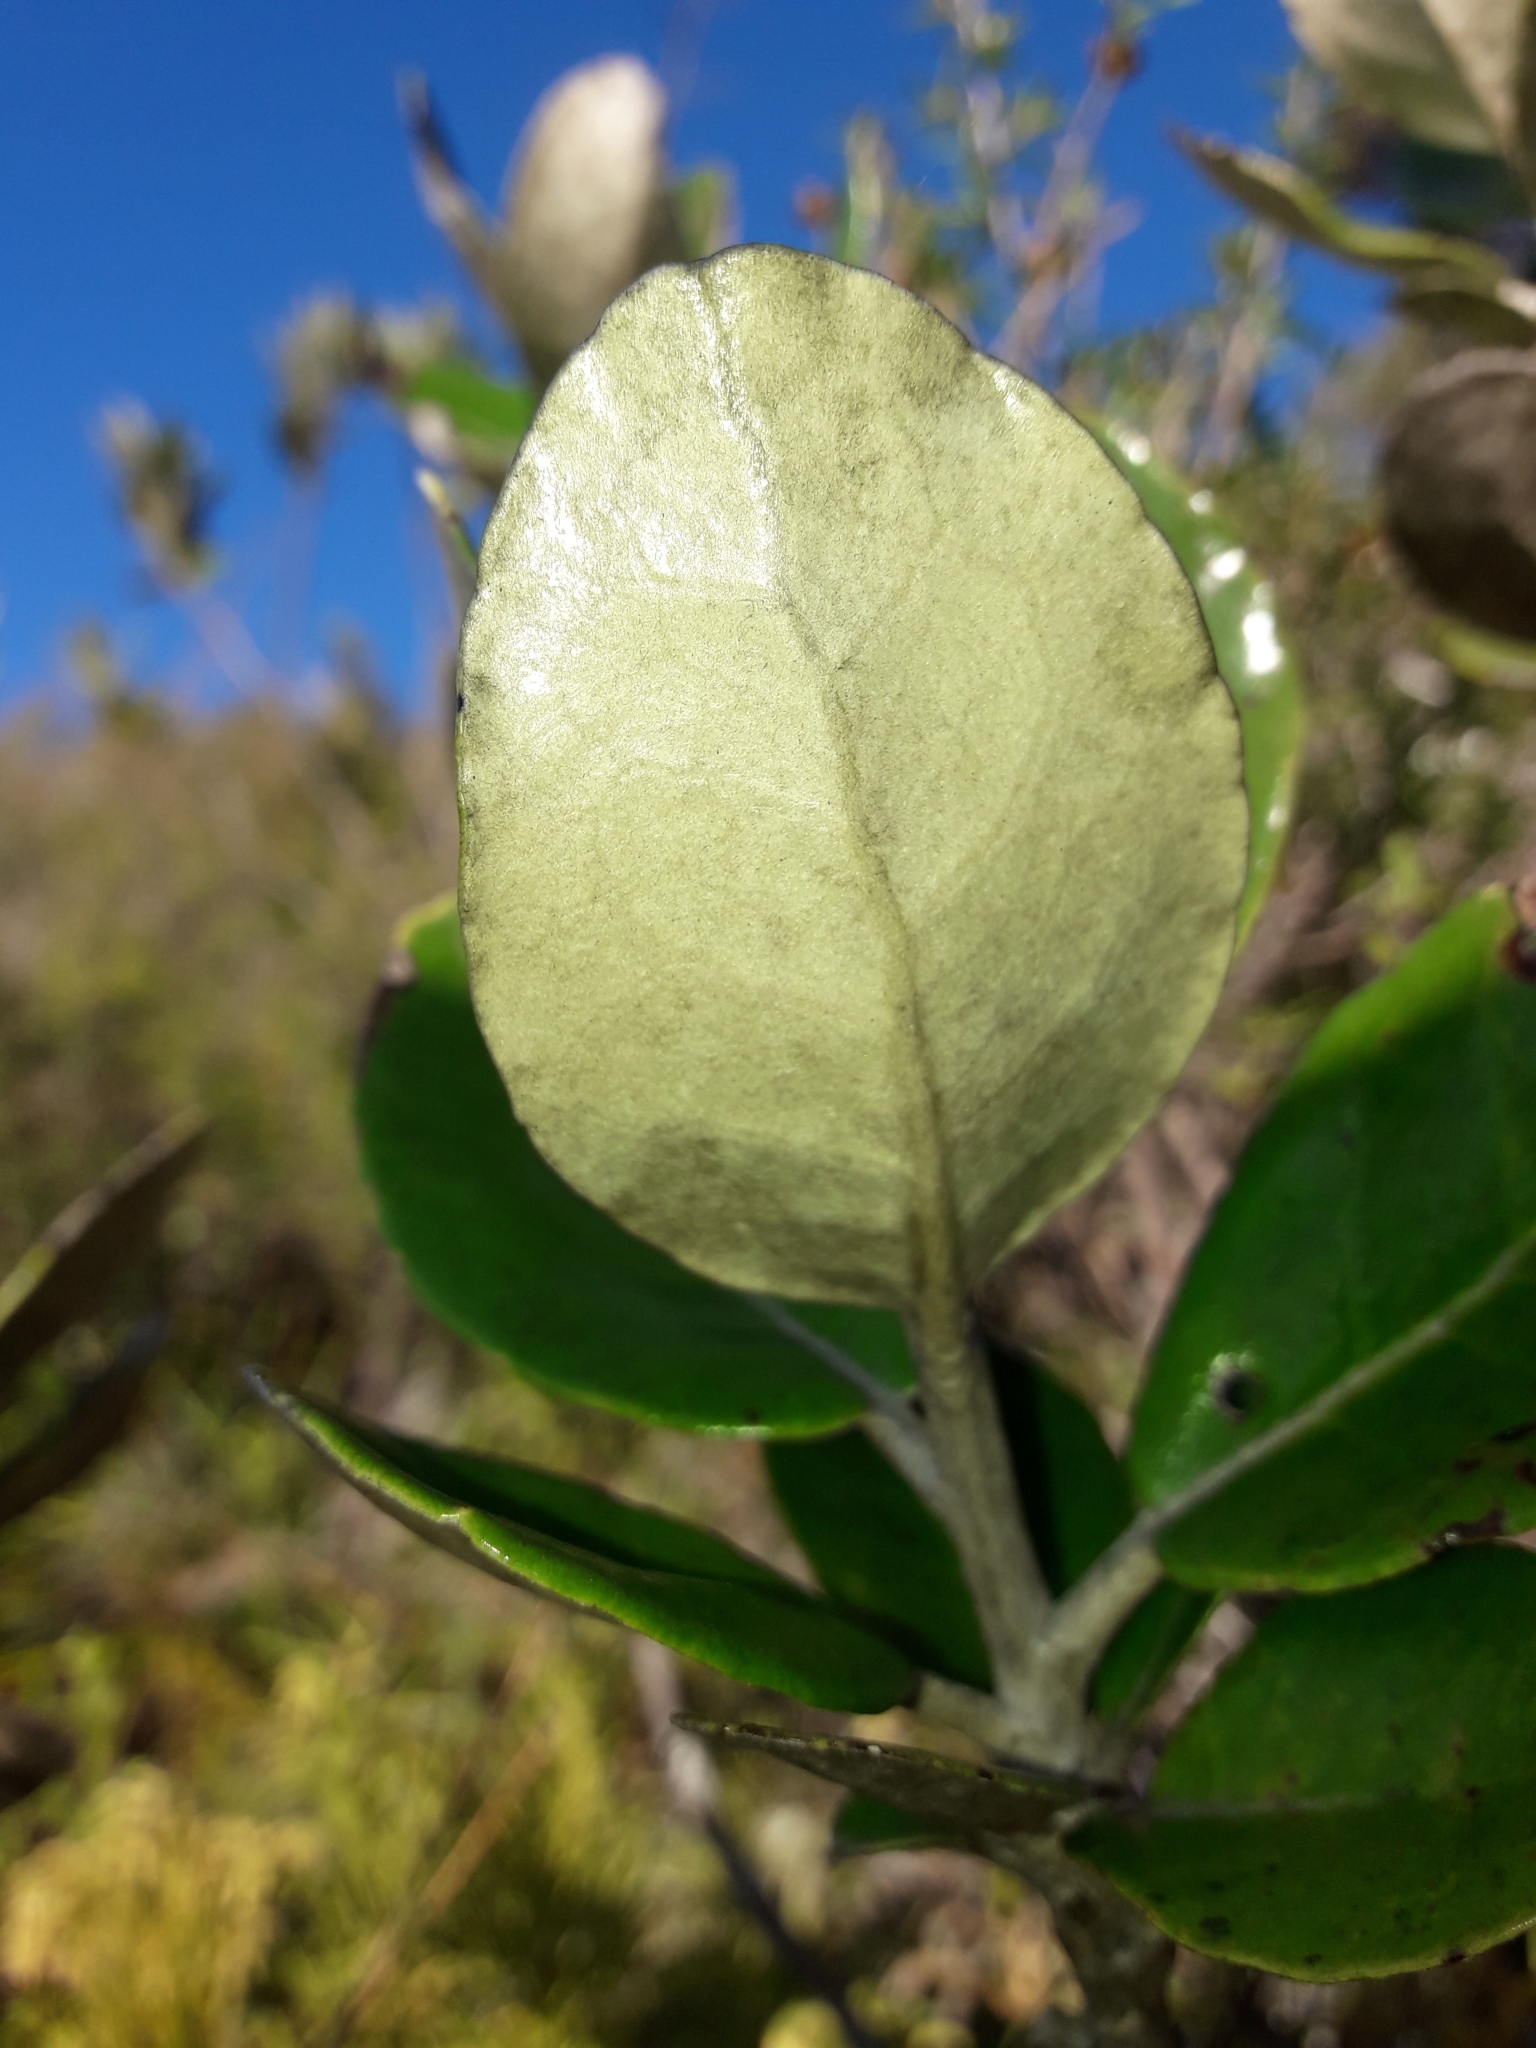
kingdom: Plantae
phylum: Tracheophyta
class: Magnoliopsida
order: Asterales
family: Asteraceae
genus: Olearia
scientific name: Olearia allomii
